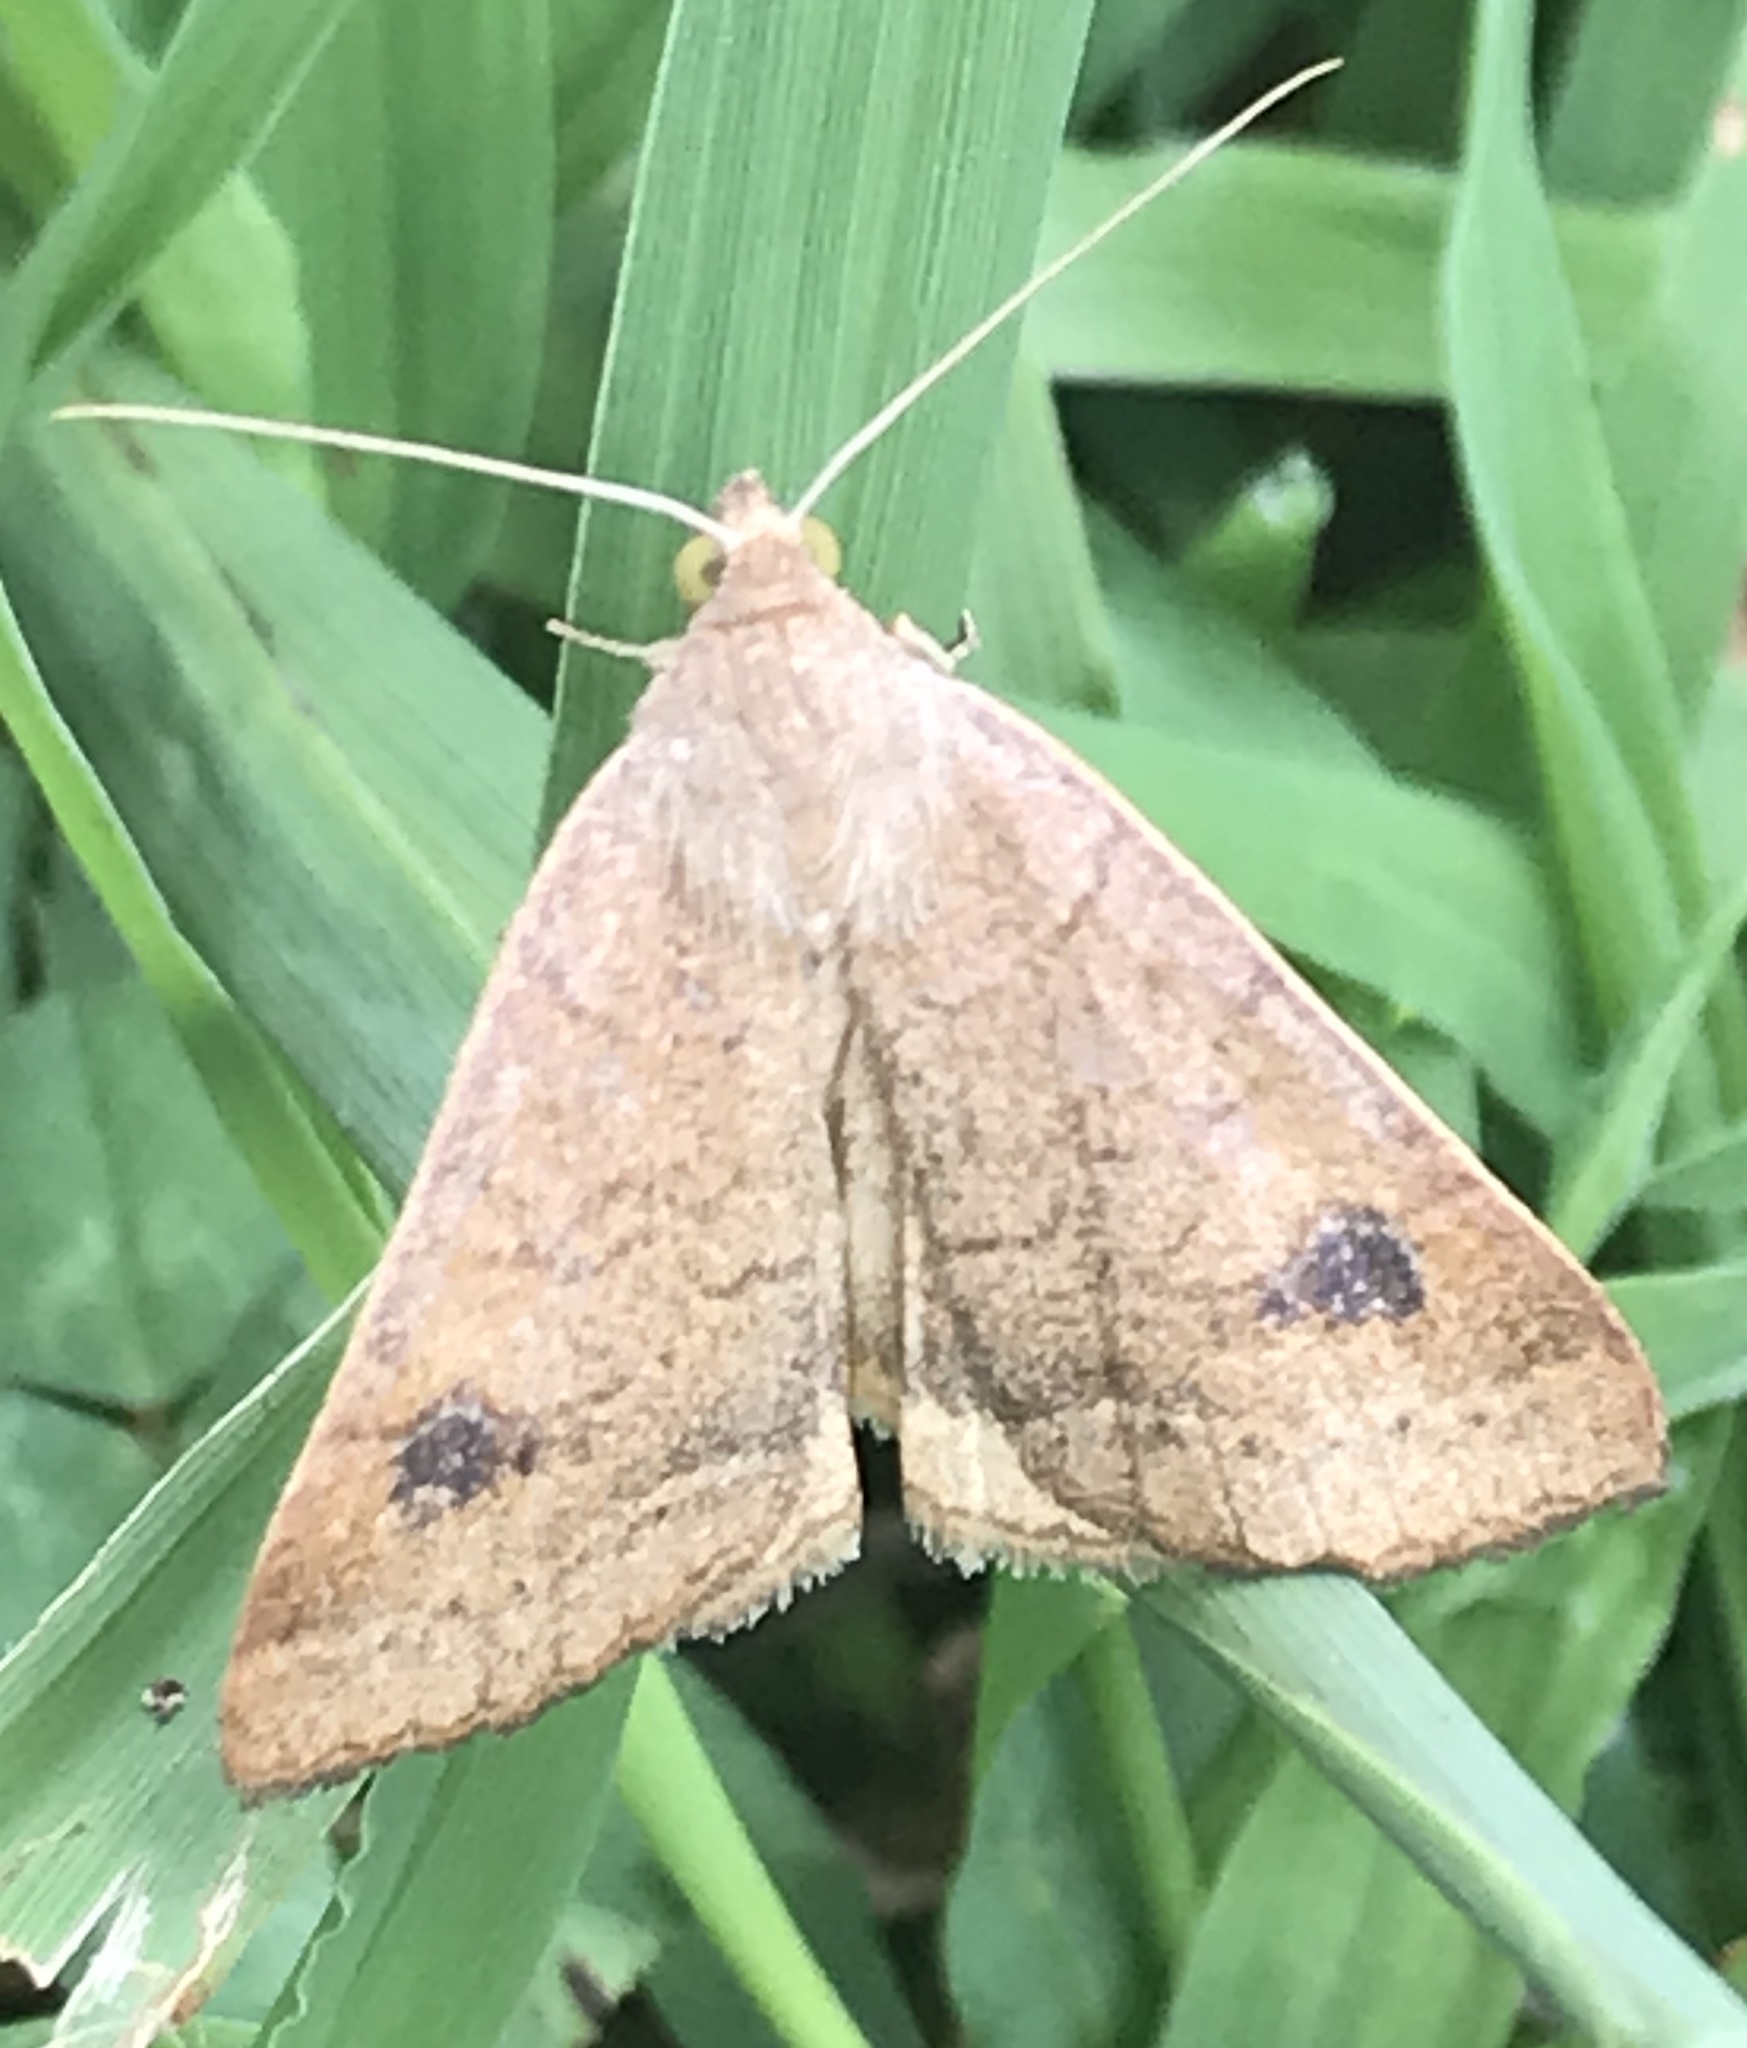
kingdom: Animalia
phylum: Arthropoda
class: Insecta
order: Lepidoptera
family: Erebidae
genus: Caenurgia
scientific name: Caenurgia chloropha
